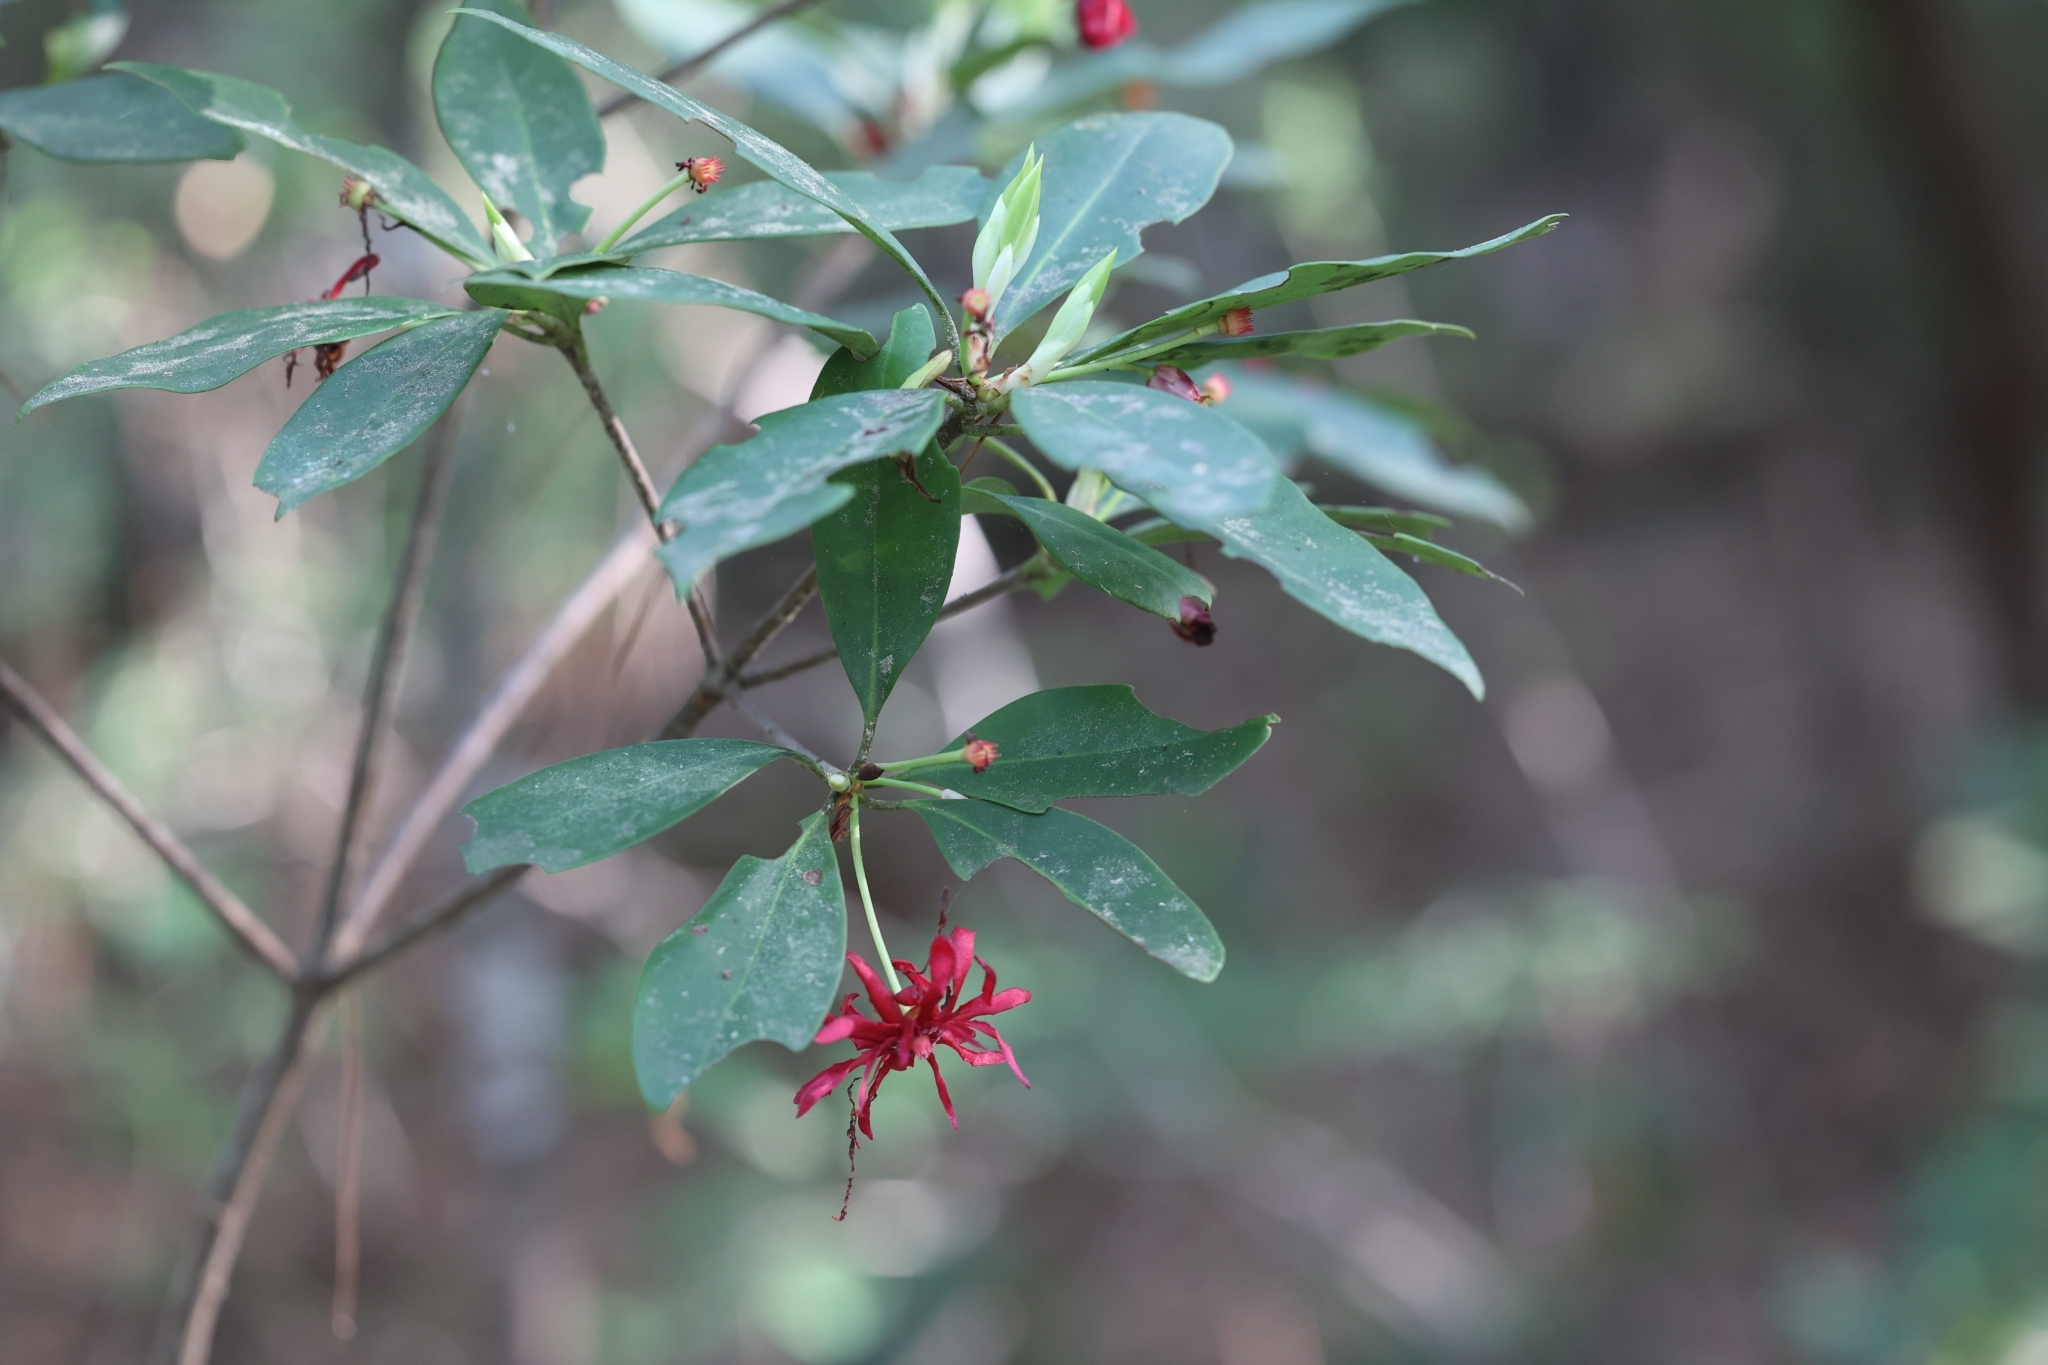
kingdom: Plantae
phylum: Tracheophyta
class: Magnoliopsida
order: Austrobaileyales
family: Schisandraceae
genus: Illicium
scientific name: Illicium floridanum
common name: Florida anisetree
